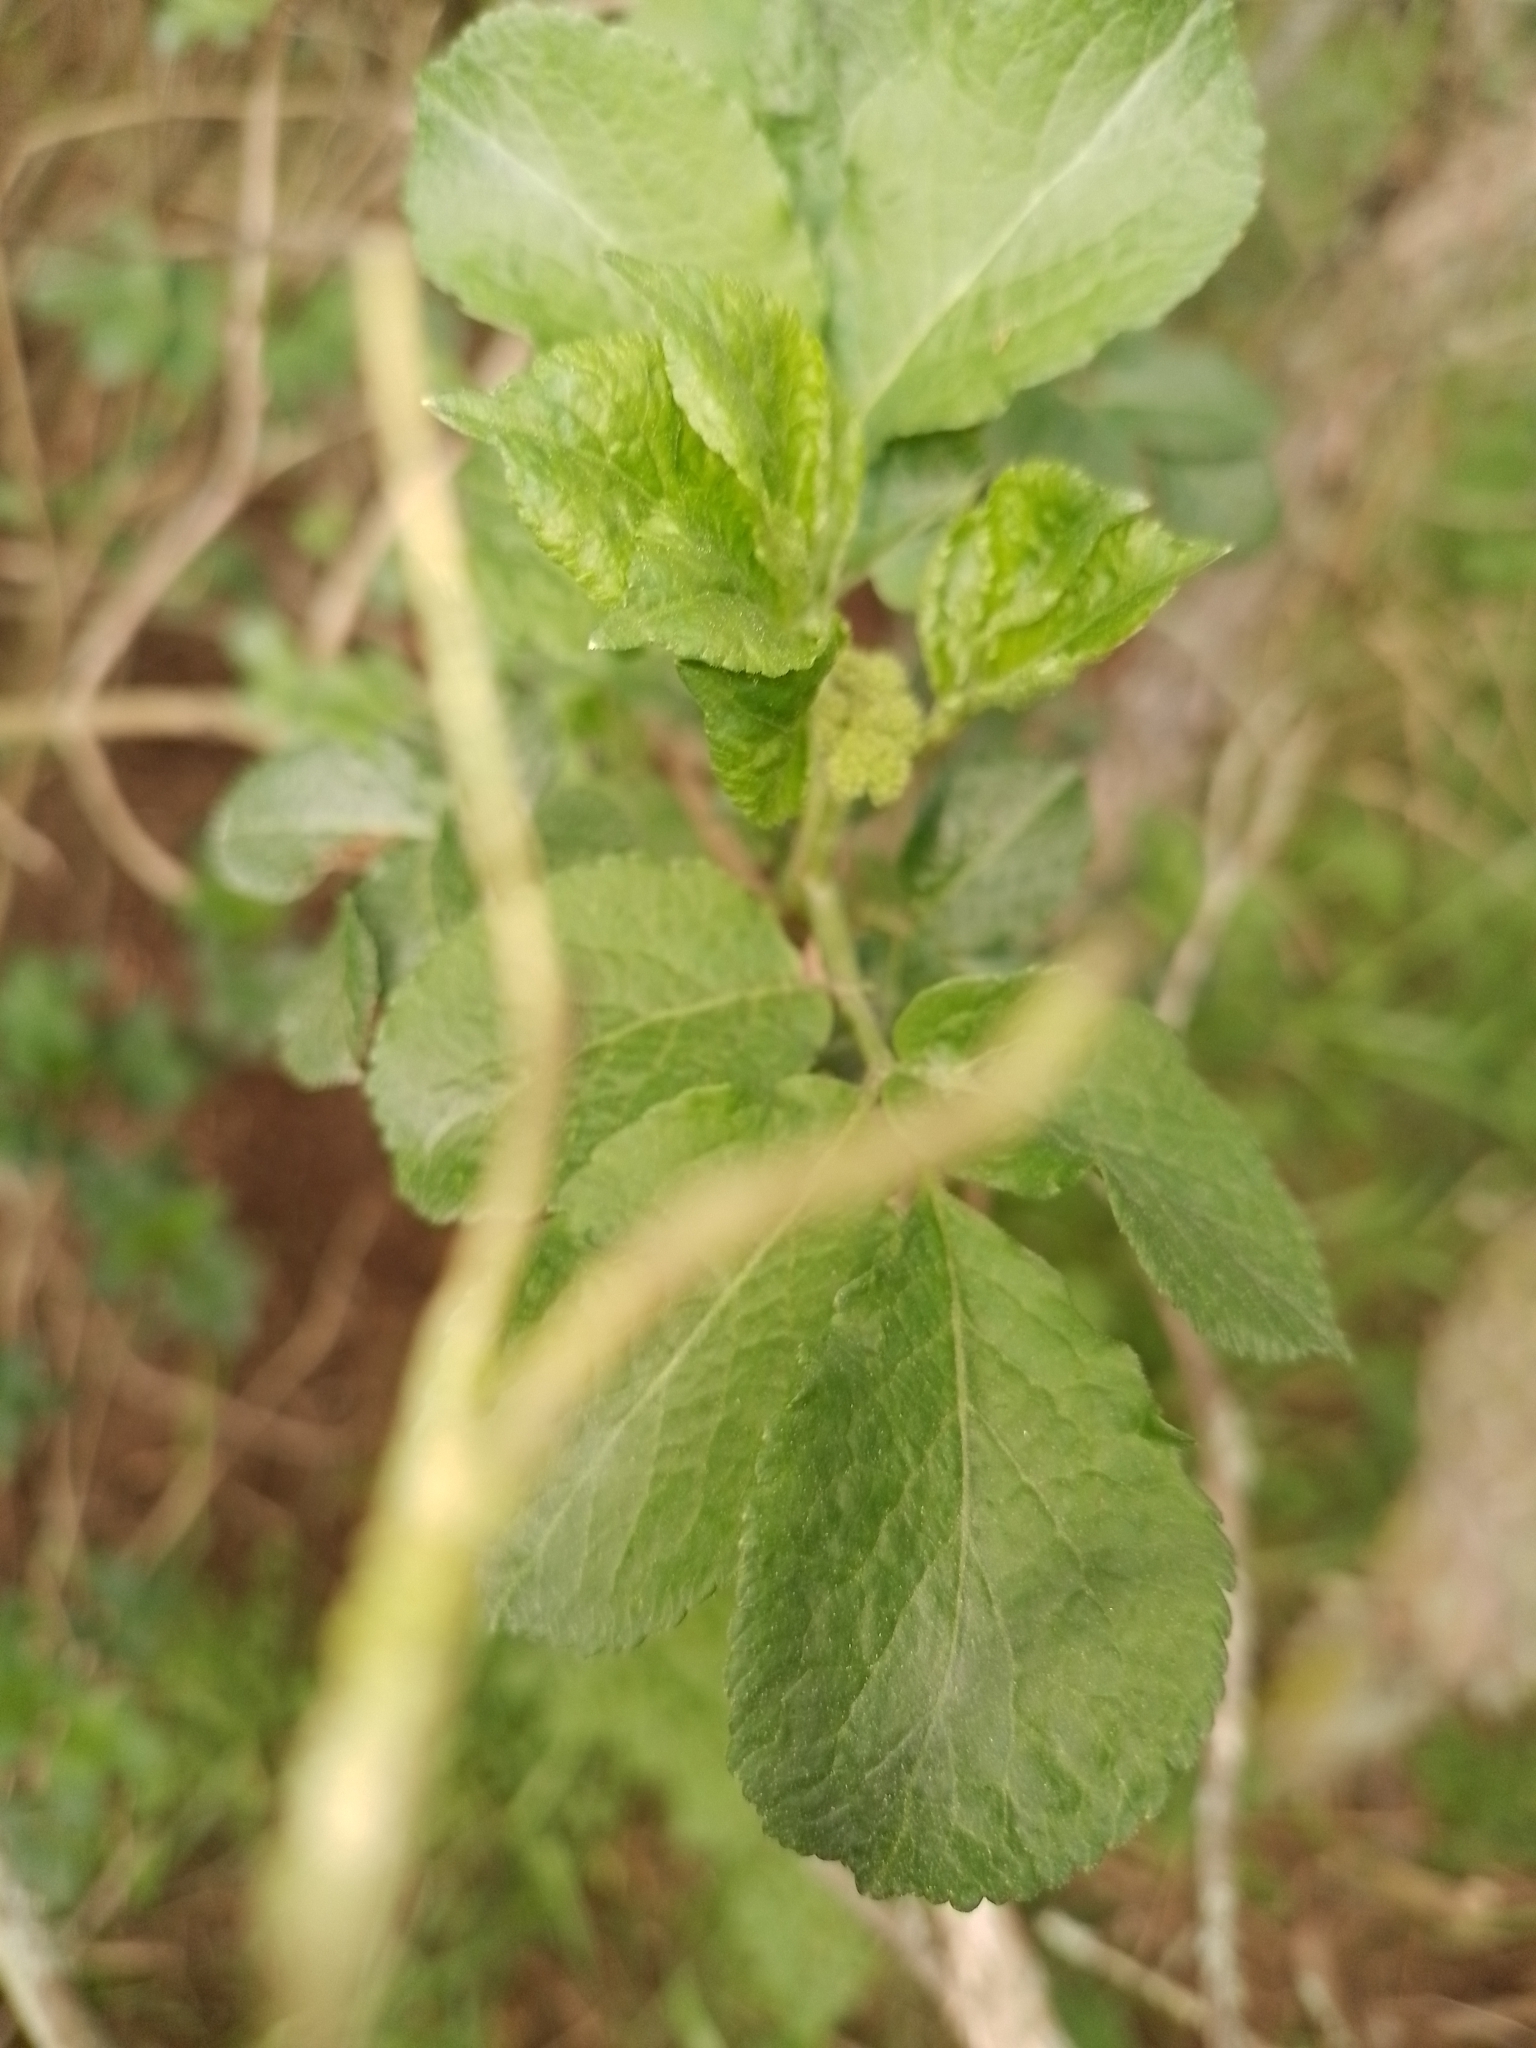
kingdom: Plantae
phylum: Tracheophyta
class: Magnoliopsida
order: Dipsacales
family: Viburnaceae
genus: Sambucus
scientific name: Sambucus nigra
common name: Elder
